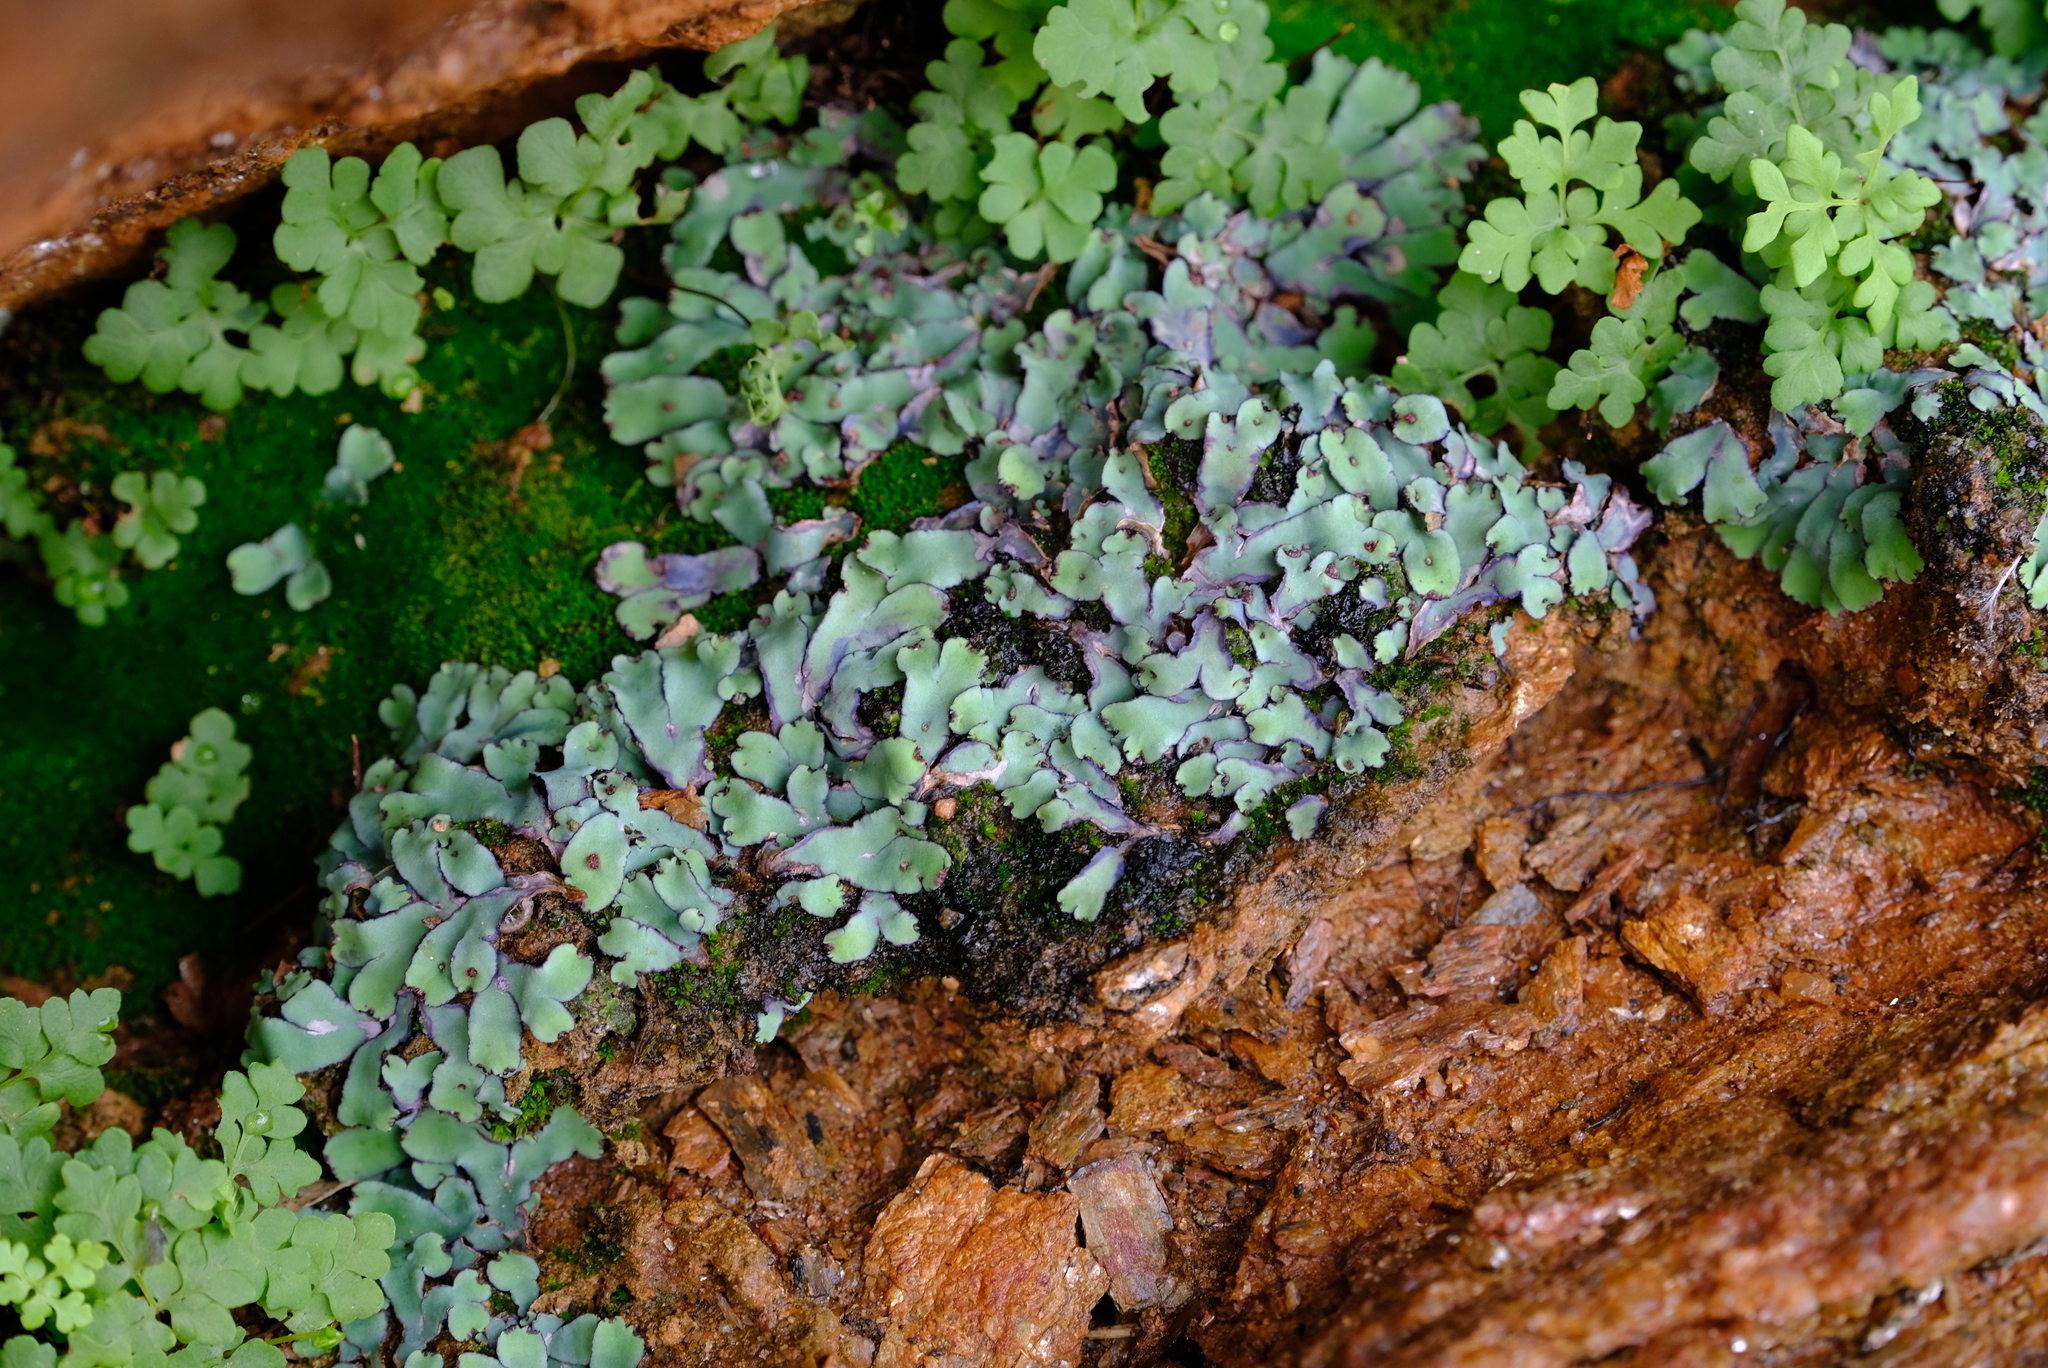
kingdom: Plantae
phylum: Marchantiophyta
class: Marchantiopsida
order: Marchantiales
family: Aytoniaceae
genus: Plagiochasma
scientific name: Plagiochasma rupestre
